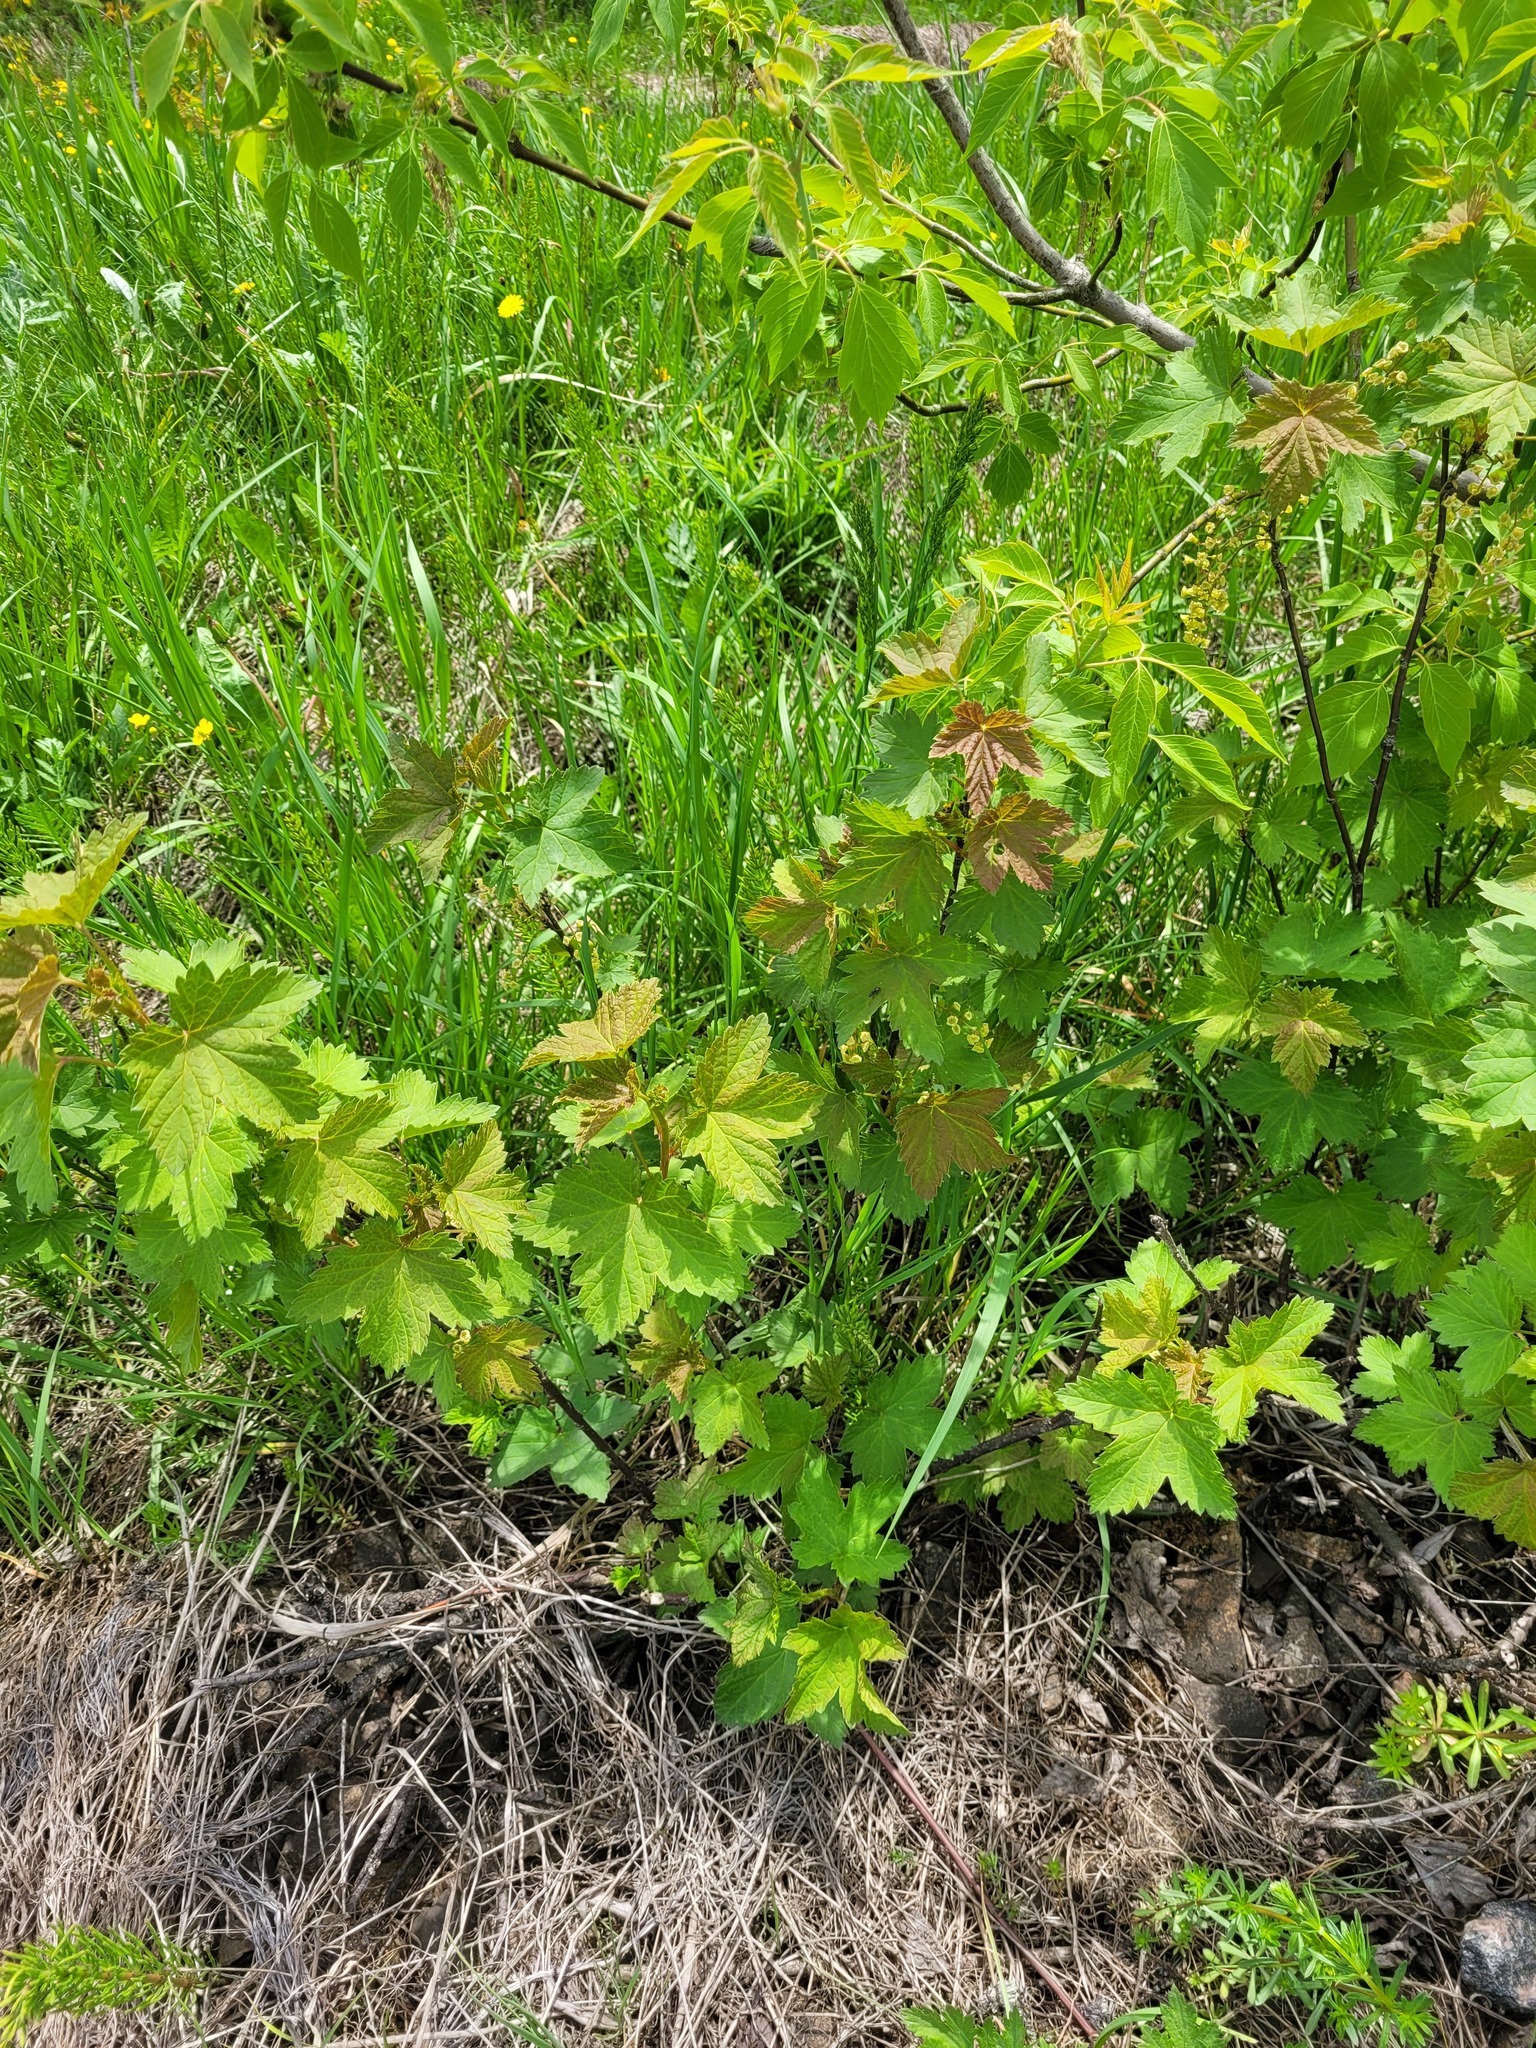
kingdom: Plantae
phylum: Tracheophyta
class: Magnoliopsida
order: Saxifragales
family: Grossulariaceae
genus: Ribes
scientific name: Ribes rubrum
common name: Red currant
